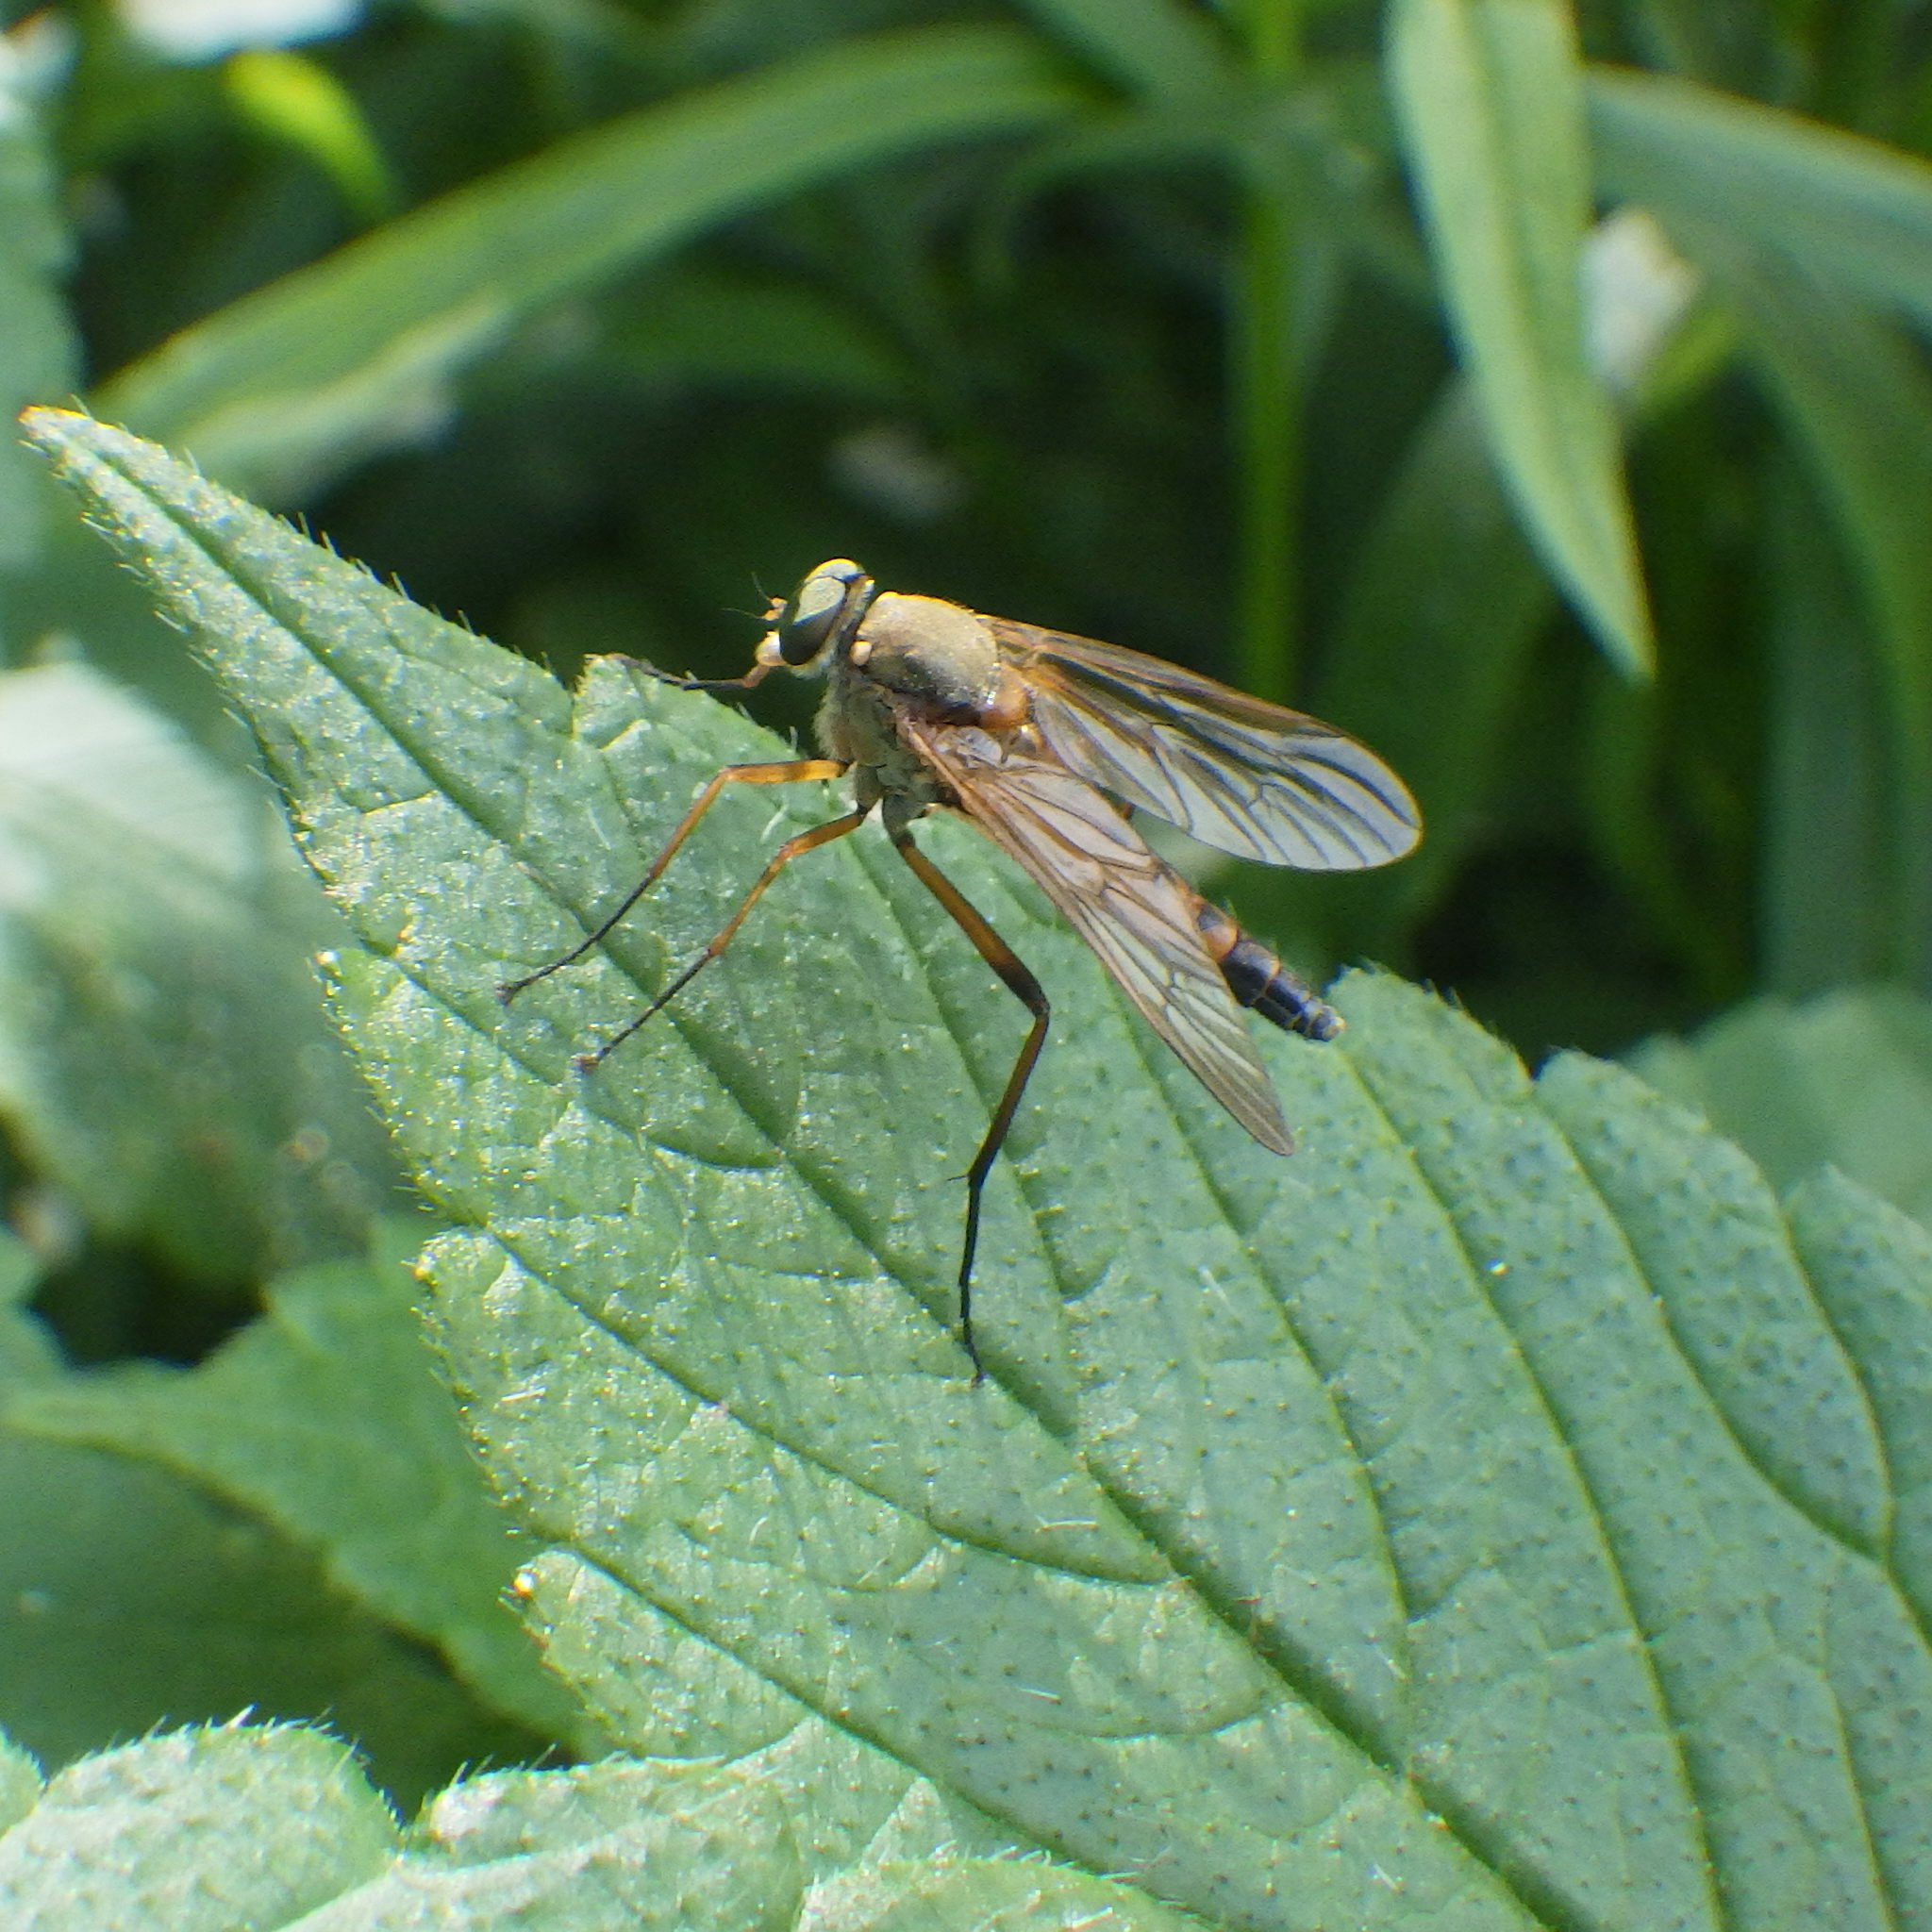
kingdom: Animalia
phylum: Arthropoda
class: Insecta
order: Diptera
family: Rhagionidae
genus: Rhagio
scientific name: Rhagio tringaria
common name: Marsh snipefly
